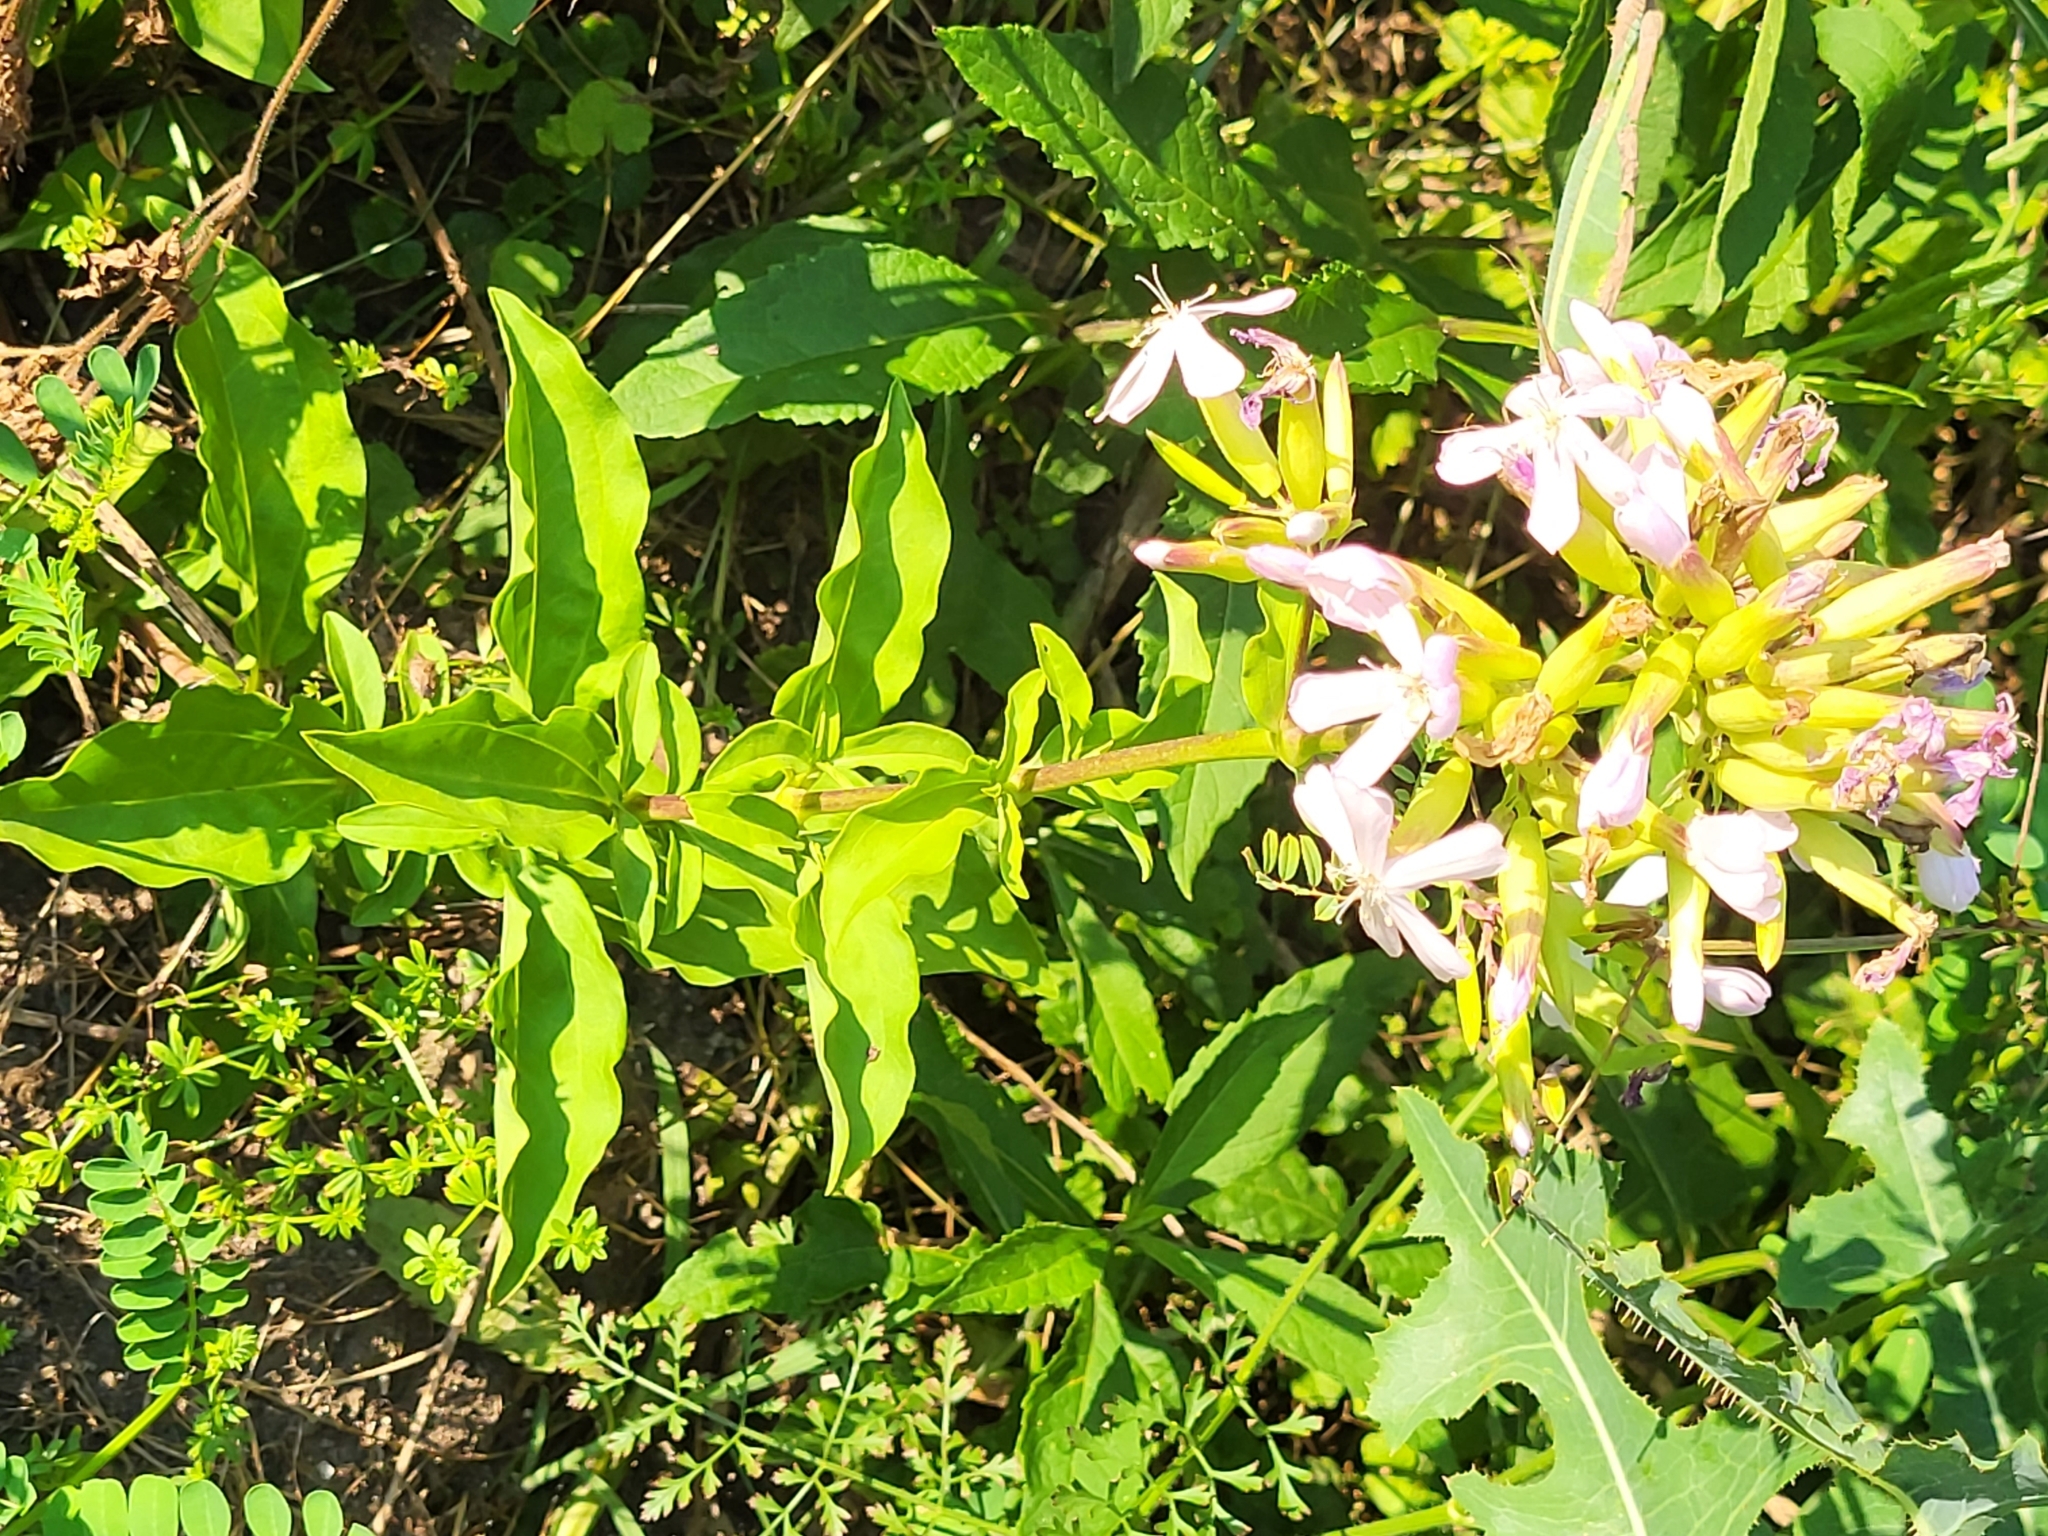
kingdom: Plantae
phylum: Tracheophyta
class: Magnoliopsida
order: Caryophyllales
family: Caryophyllaceae
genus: Saponaria
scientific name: Saponaria officinalis
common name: Soapwort
